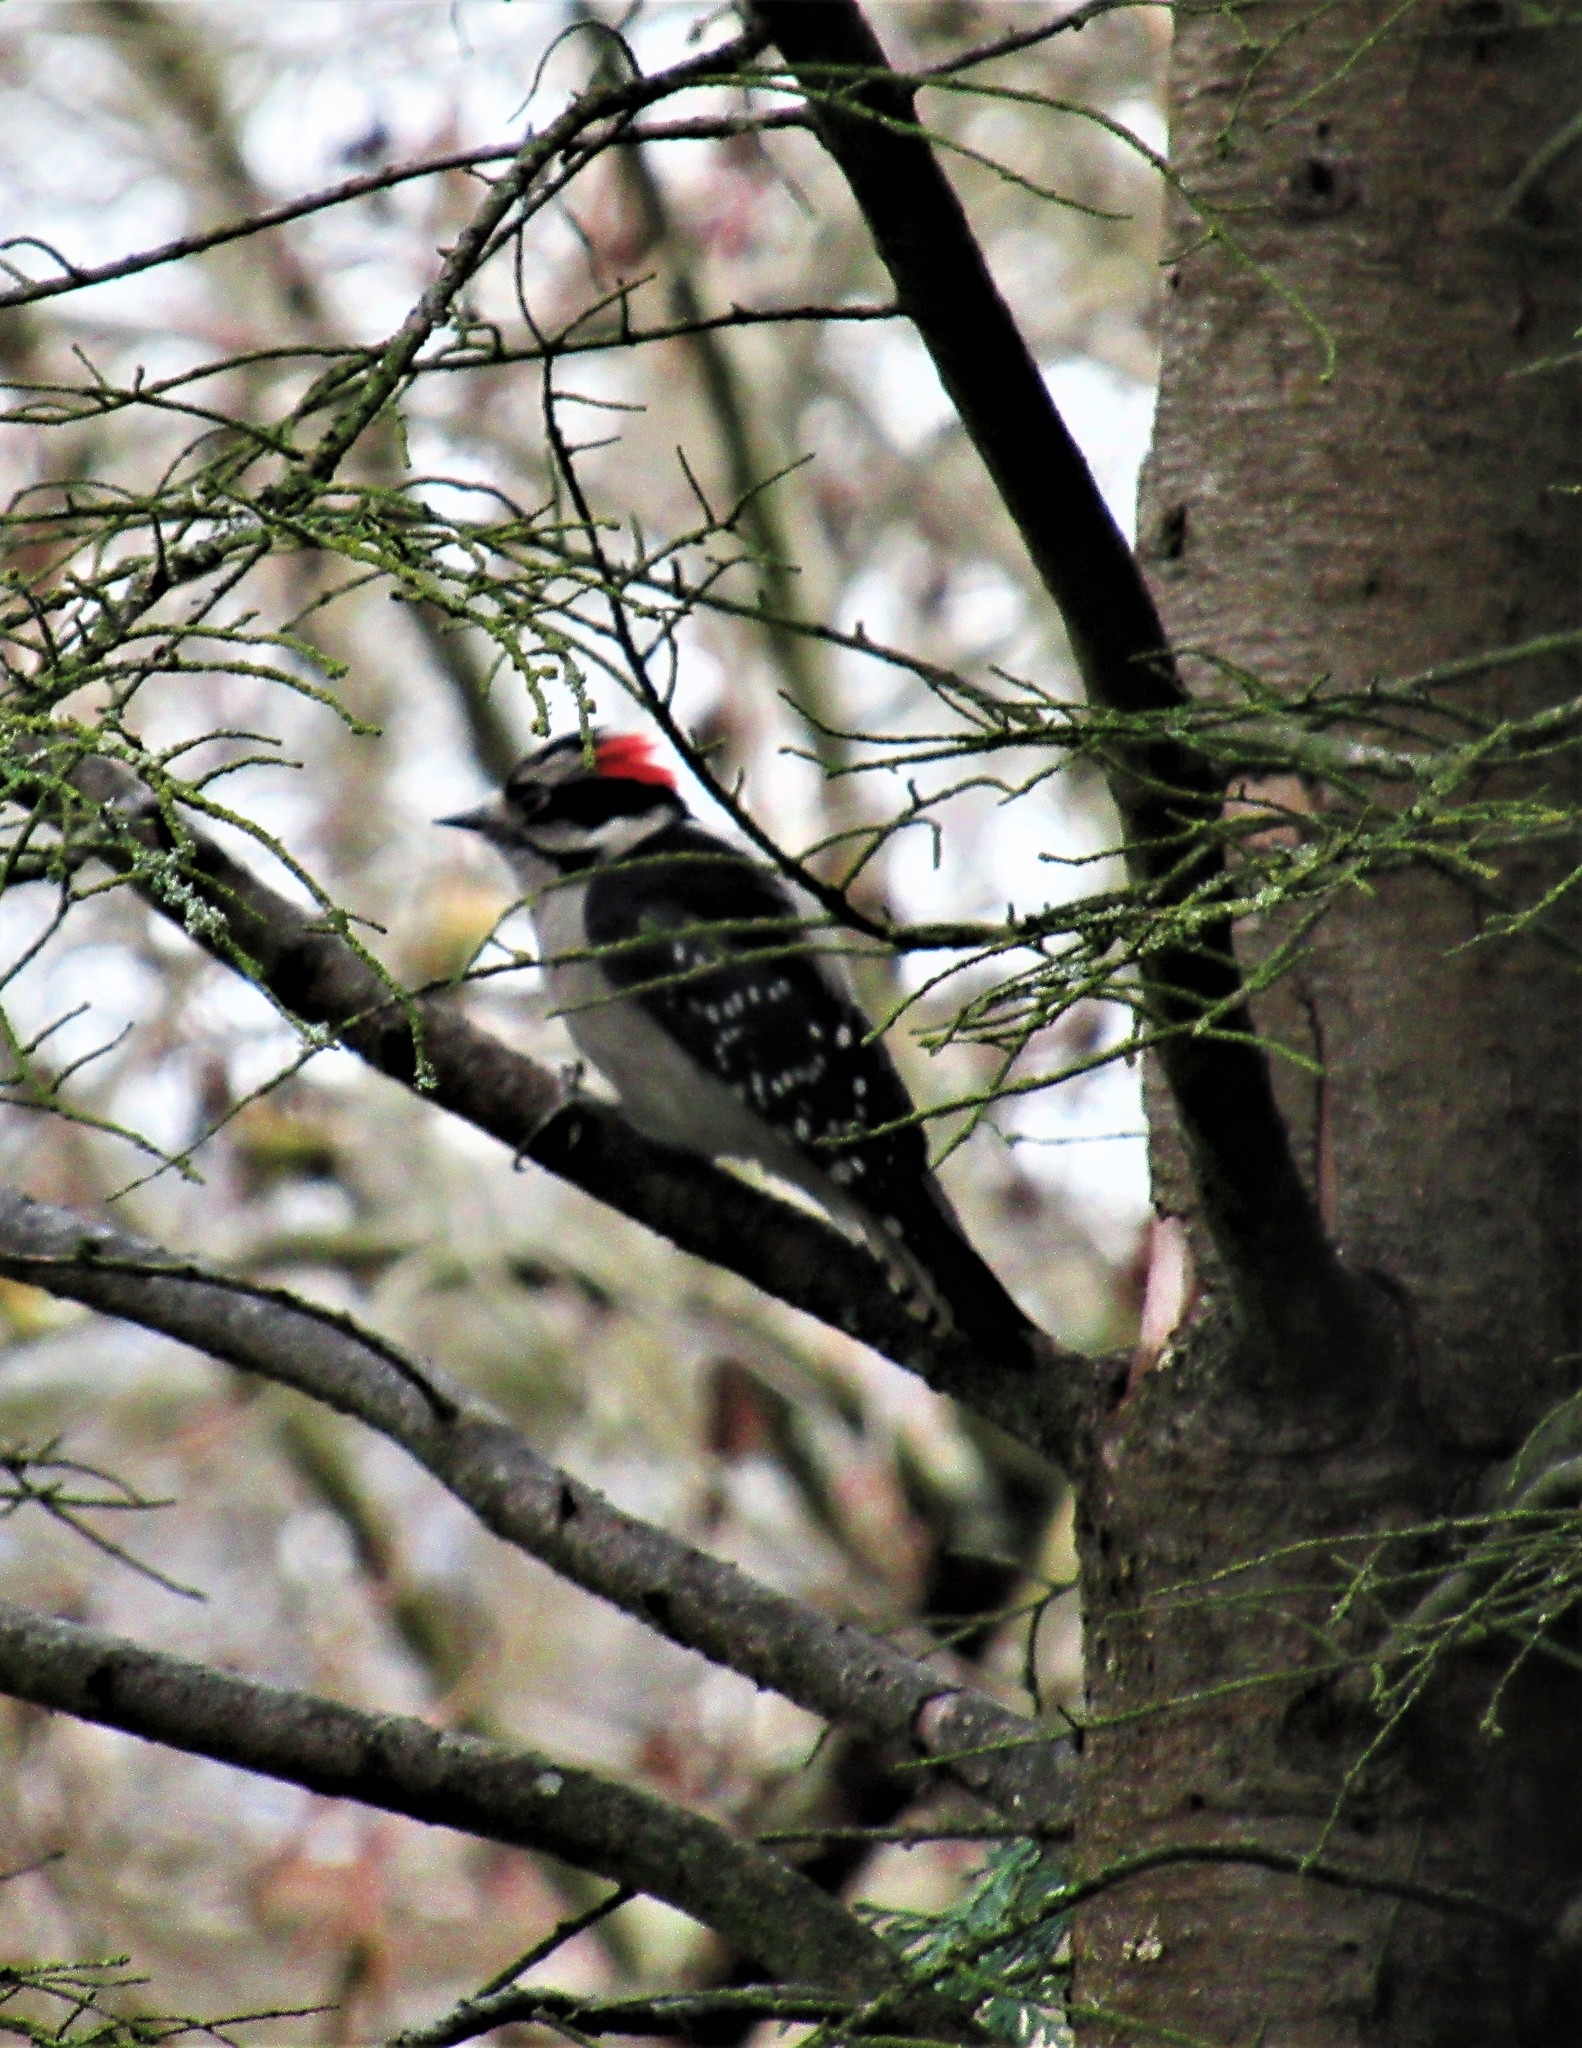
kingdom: Animalia
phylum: Chordata
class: Aves
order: Piciformes
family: Picidae
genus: Dryobates
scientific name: Dryobates pubescens
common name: Downy woodpecker
